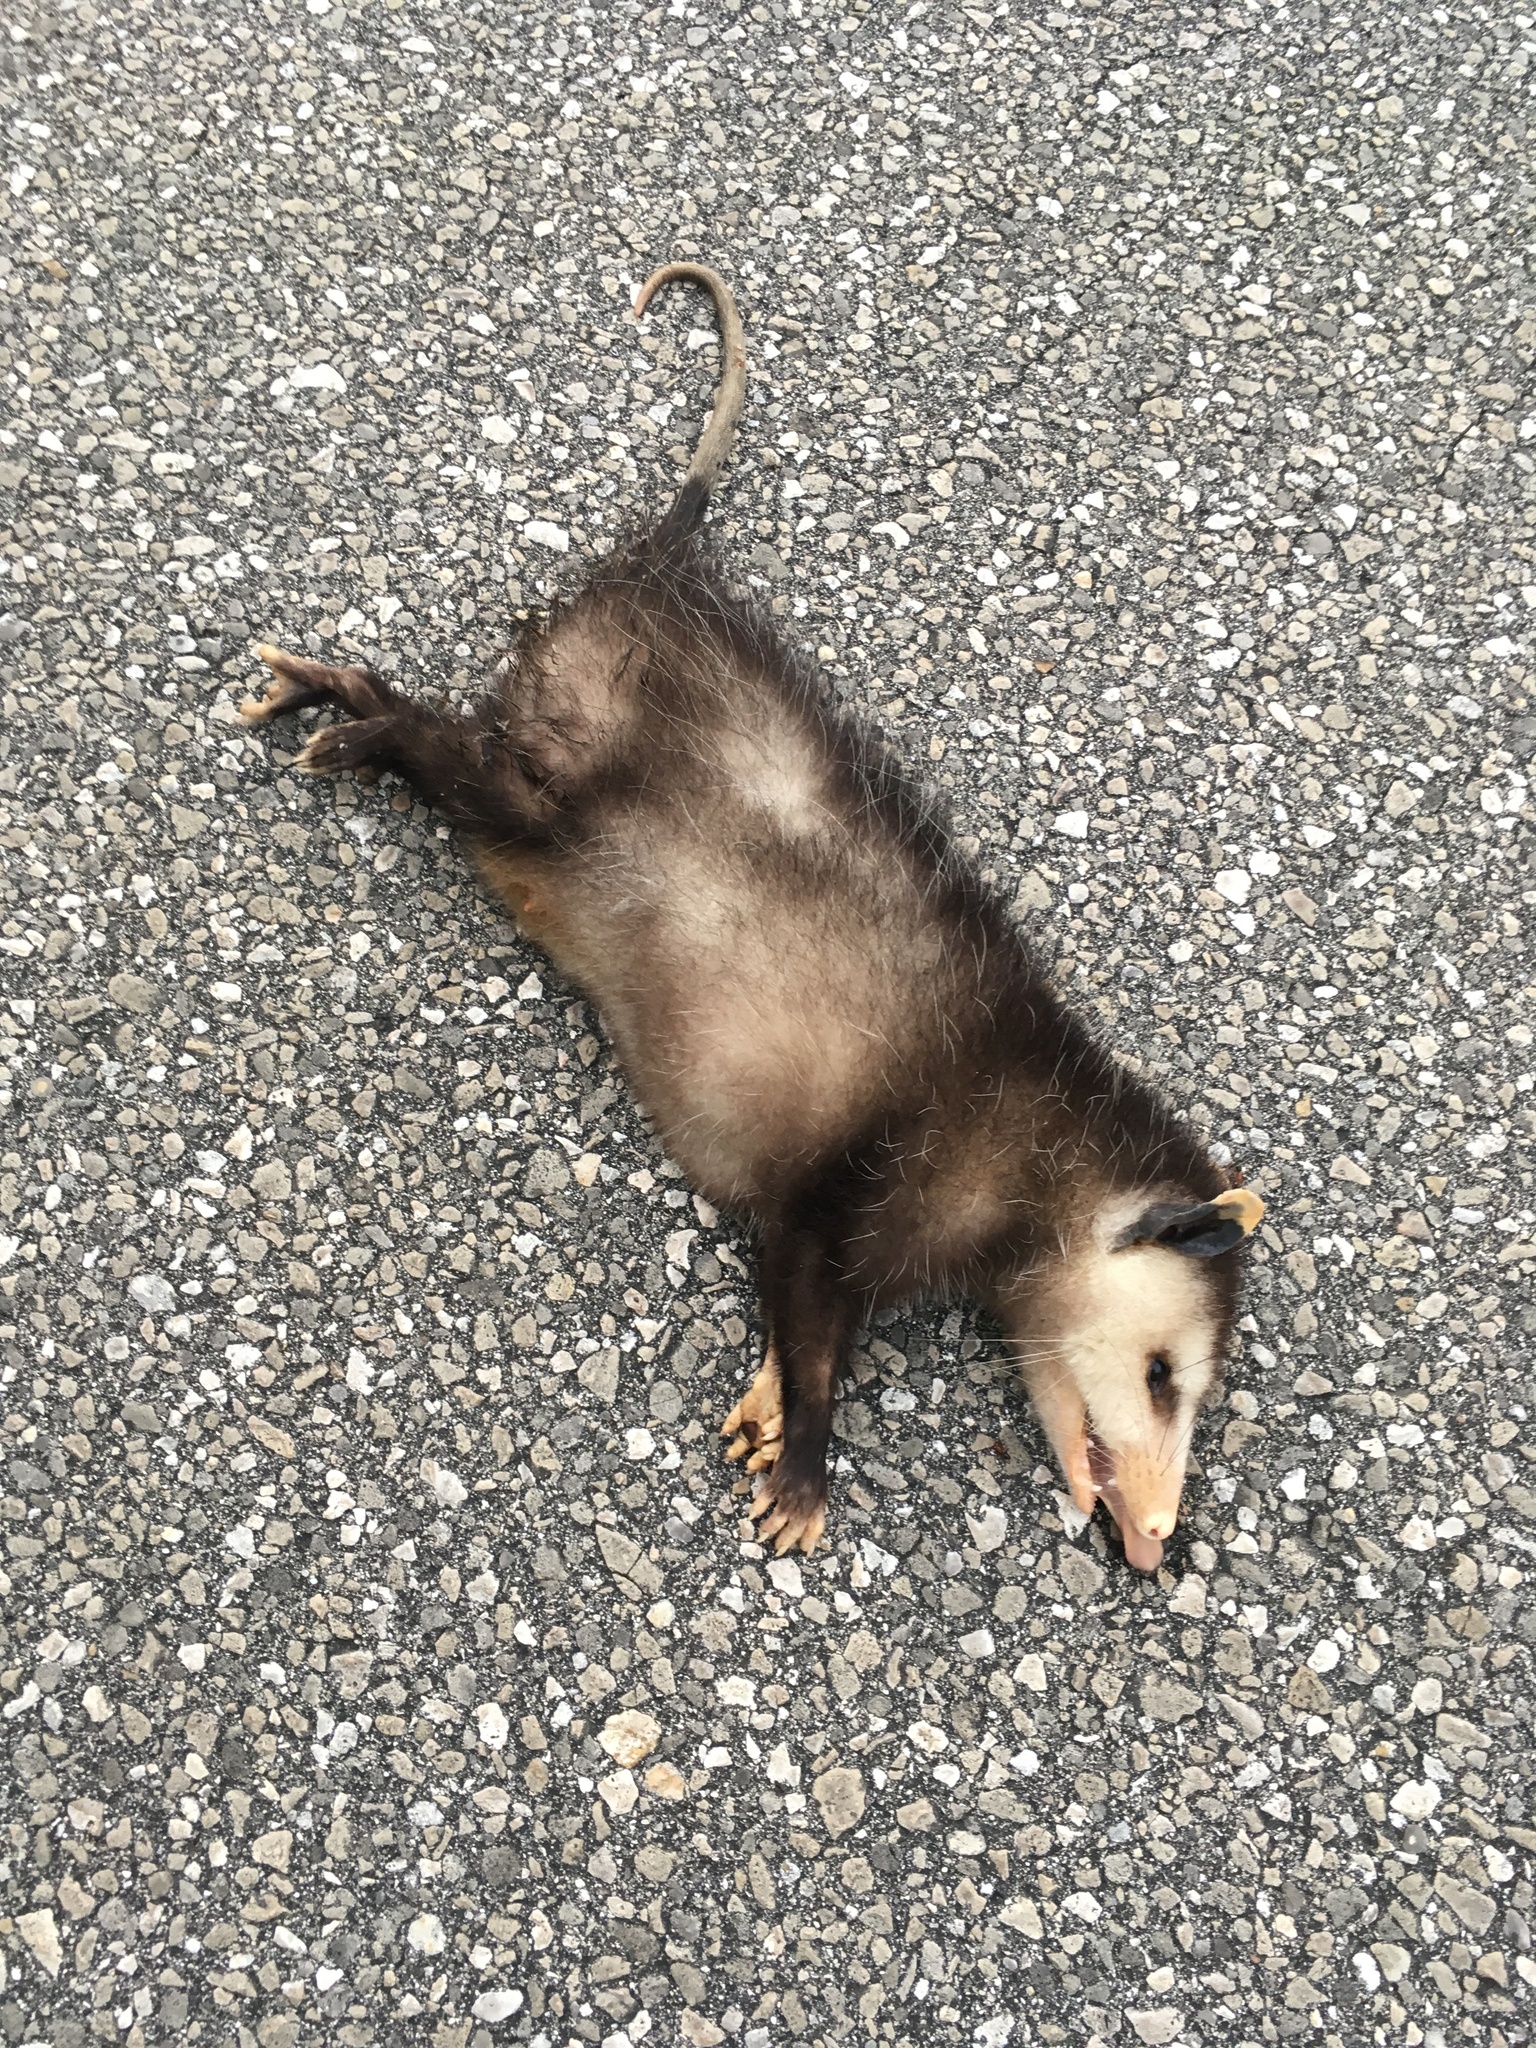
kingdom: Animalia
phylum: Chordata
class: Mammalia
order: Didelphimorphia
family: Didelphidae
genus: Didelphis
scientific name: Didelphis virginiana
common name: Virginia opossum
